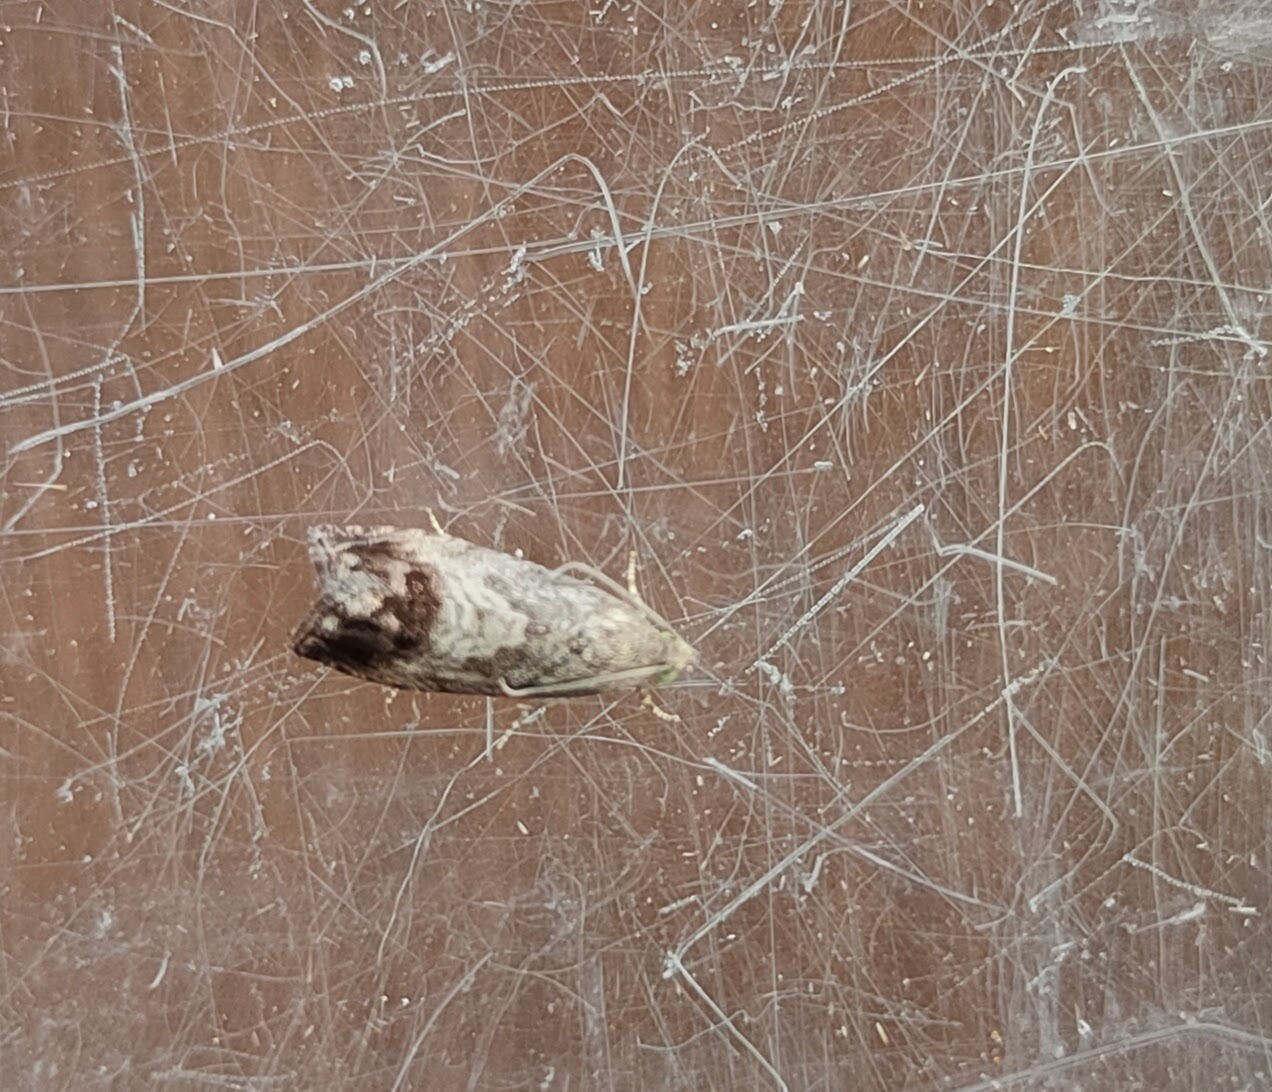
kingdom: Animalia
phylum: Arthropoda
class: Insecta
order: Lepidoptera
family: Tortricidae
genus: Cydia
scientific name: Cydia splendana
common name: De: kastanienwickler, eichenwickler es: oruga de la castaña fr: carpocapse des châtaignes it: cidia o tortrice tardiva delle castagne pt: bichado das castanhas gb: acorn moth, chestnut fruit tortrix
